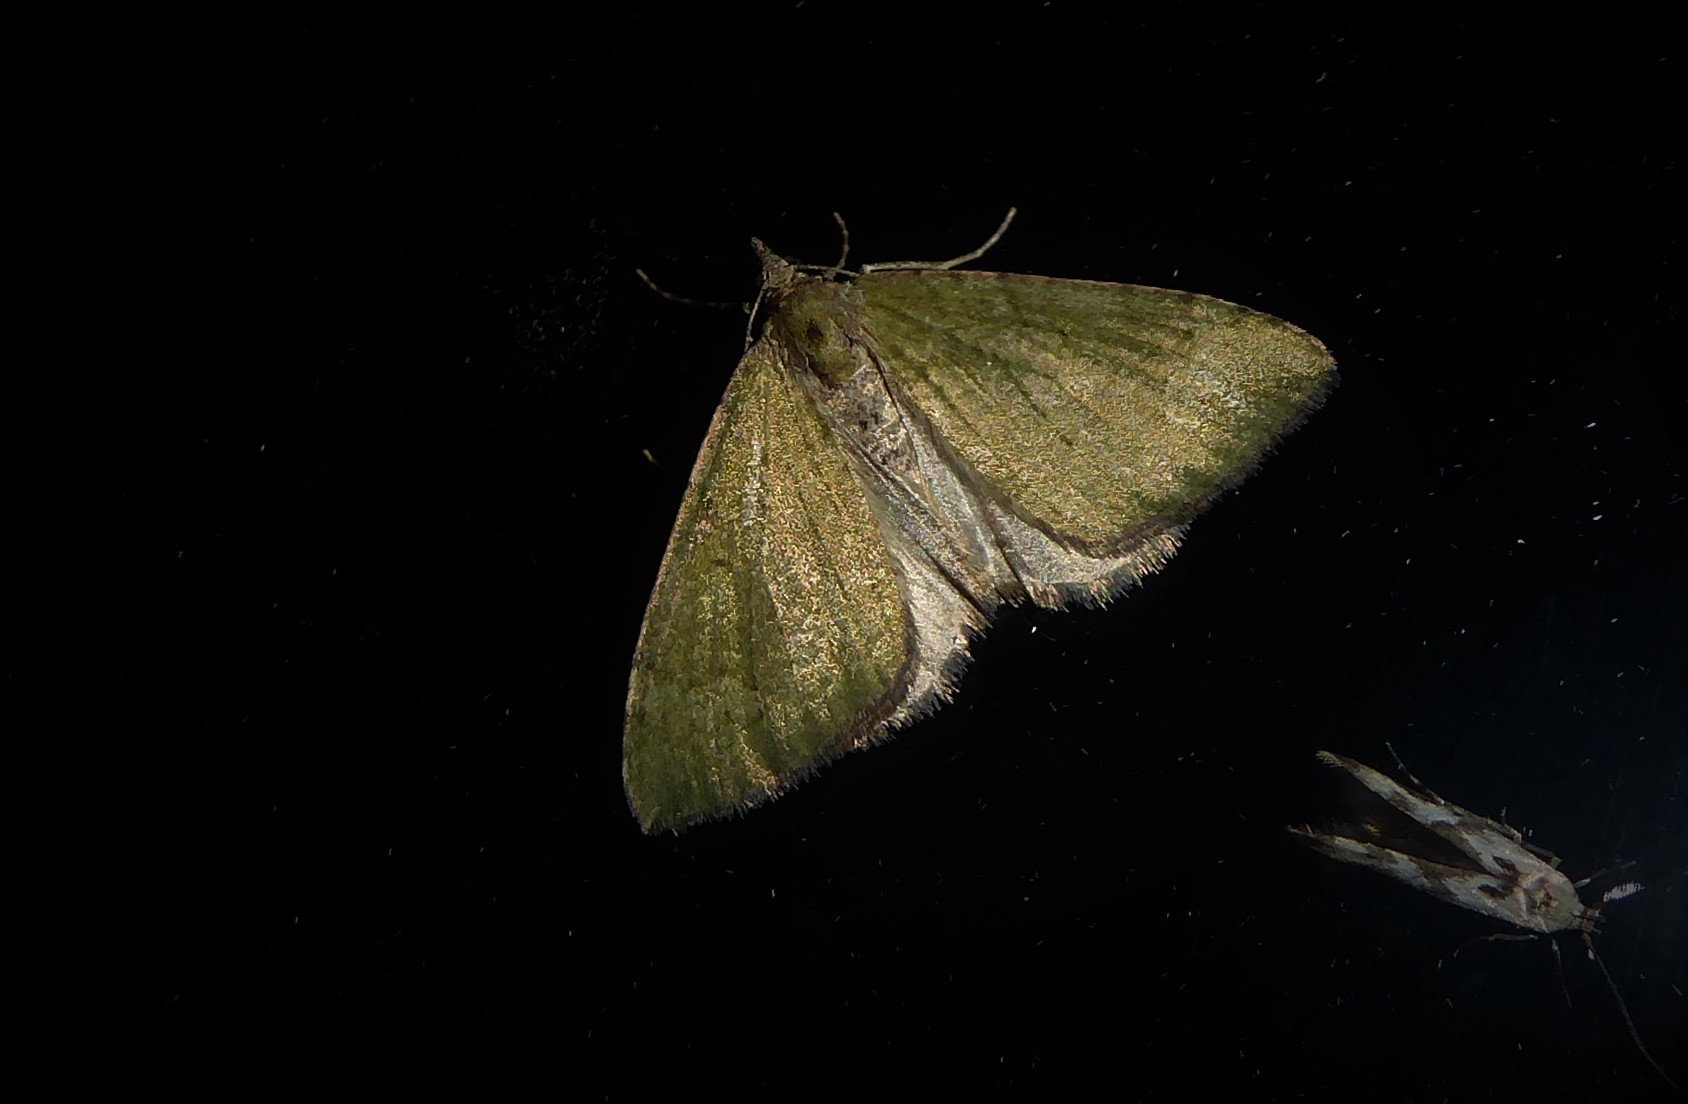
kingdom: Animalia
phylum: Arthropoda
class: Insecta
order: Lepidoptera
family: Geometridae
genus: Epyaxa
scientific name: Epyaxa rosearia
